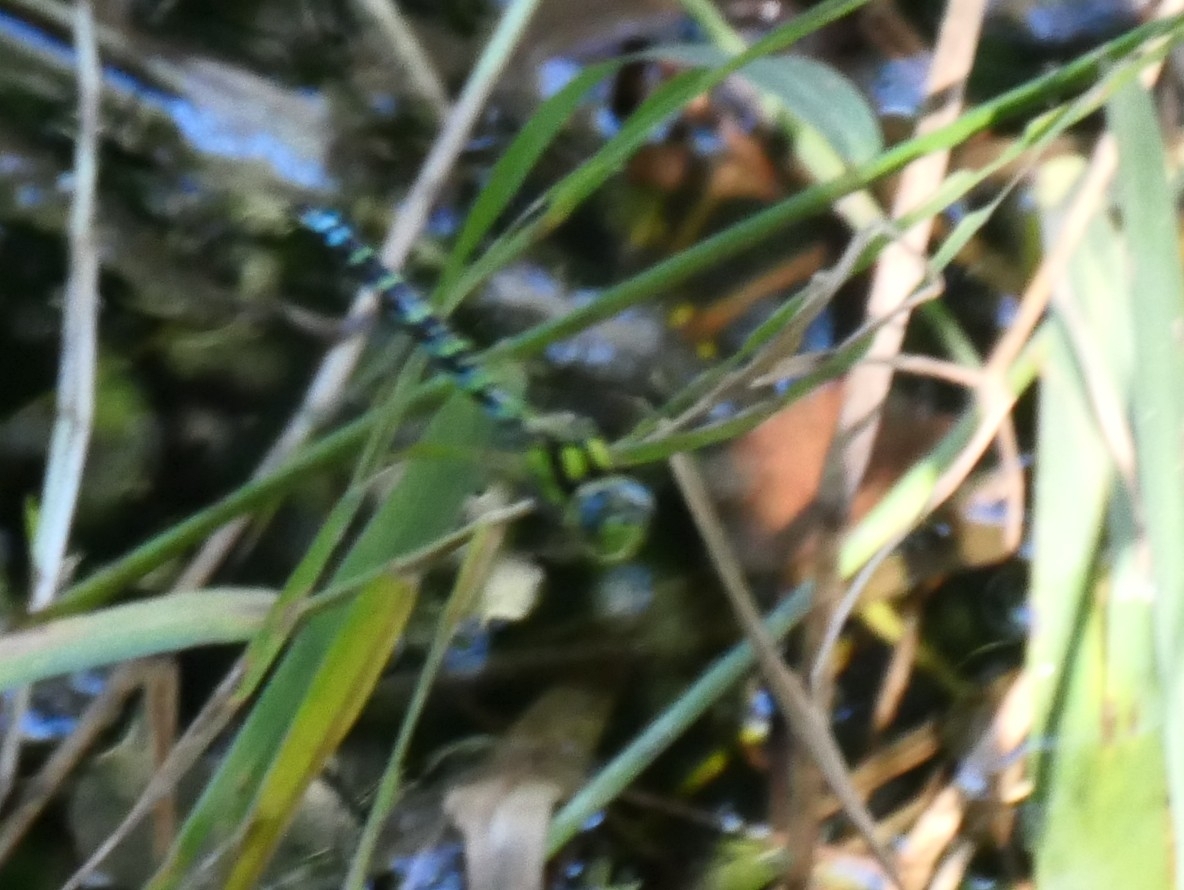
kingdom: Animalia
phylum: Arthropoda
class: Insecta
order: Odonata
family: Aeshnidae
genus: Aeshna
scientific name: Aeshna cyanea
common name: Southern hawker
